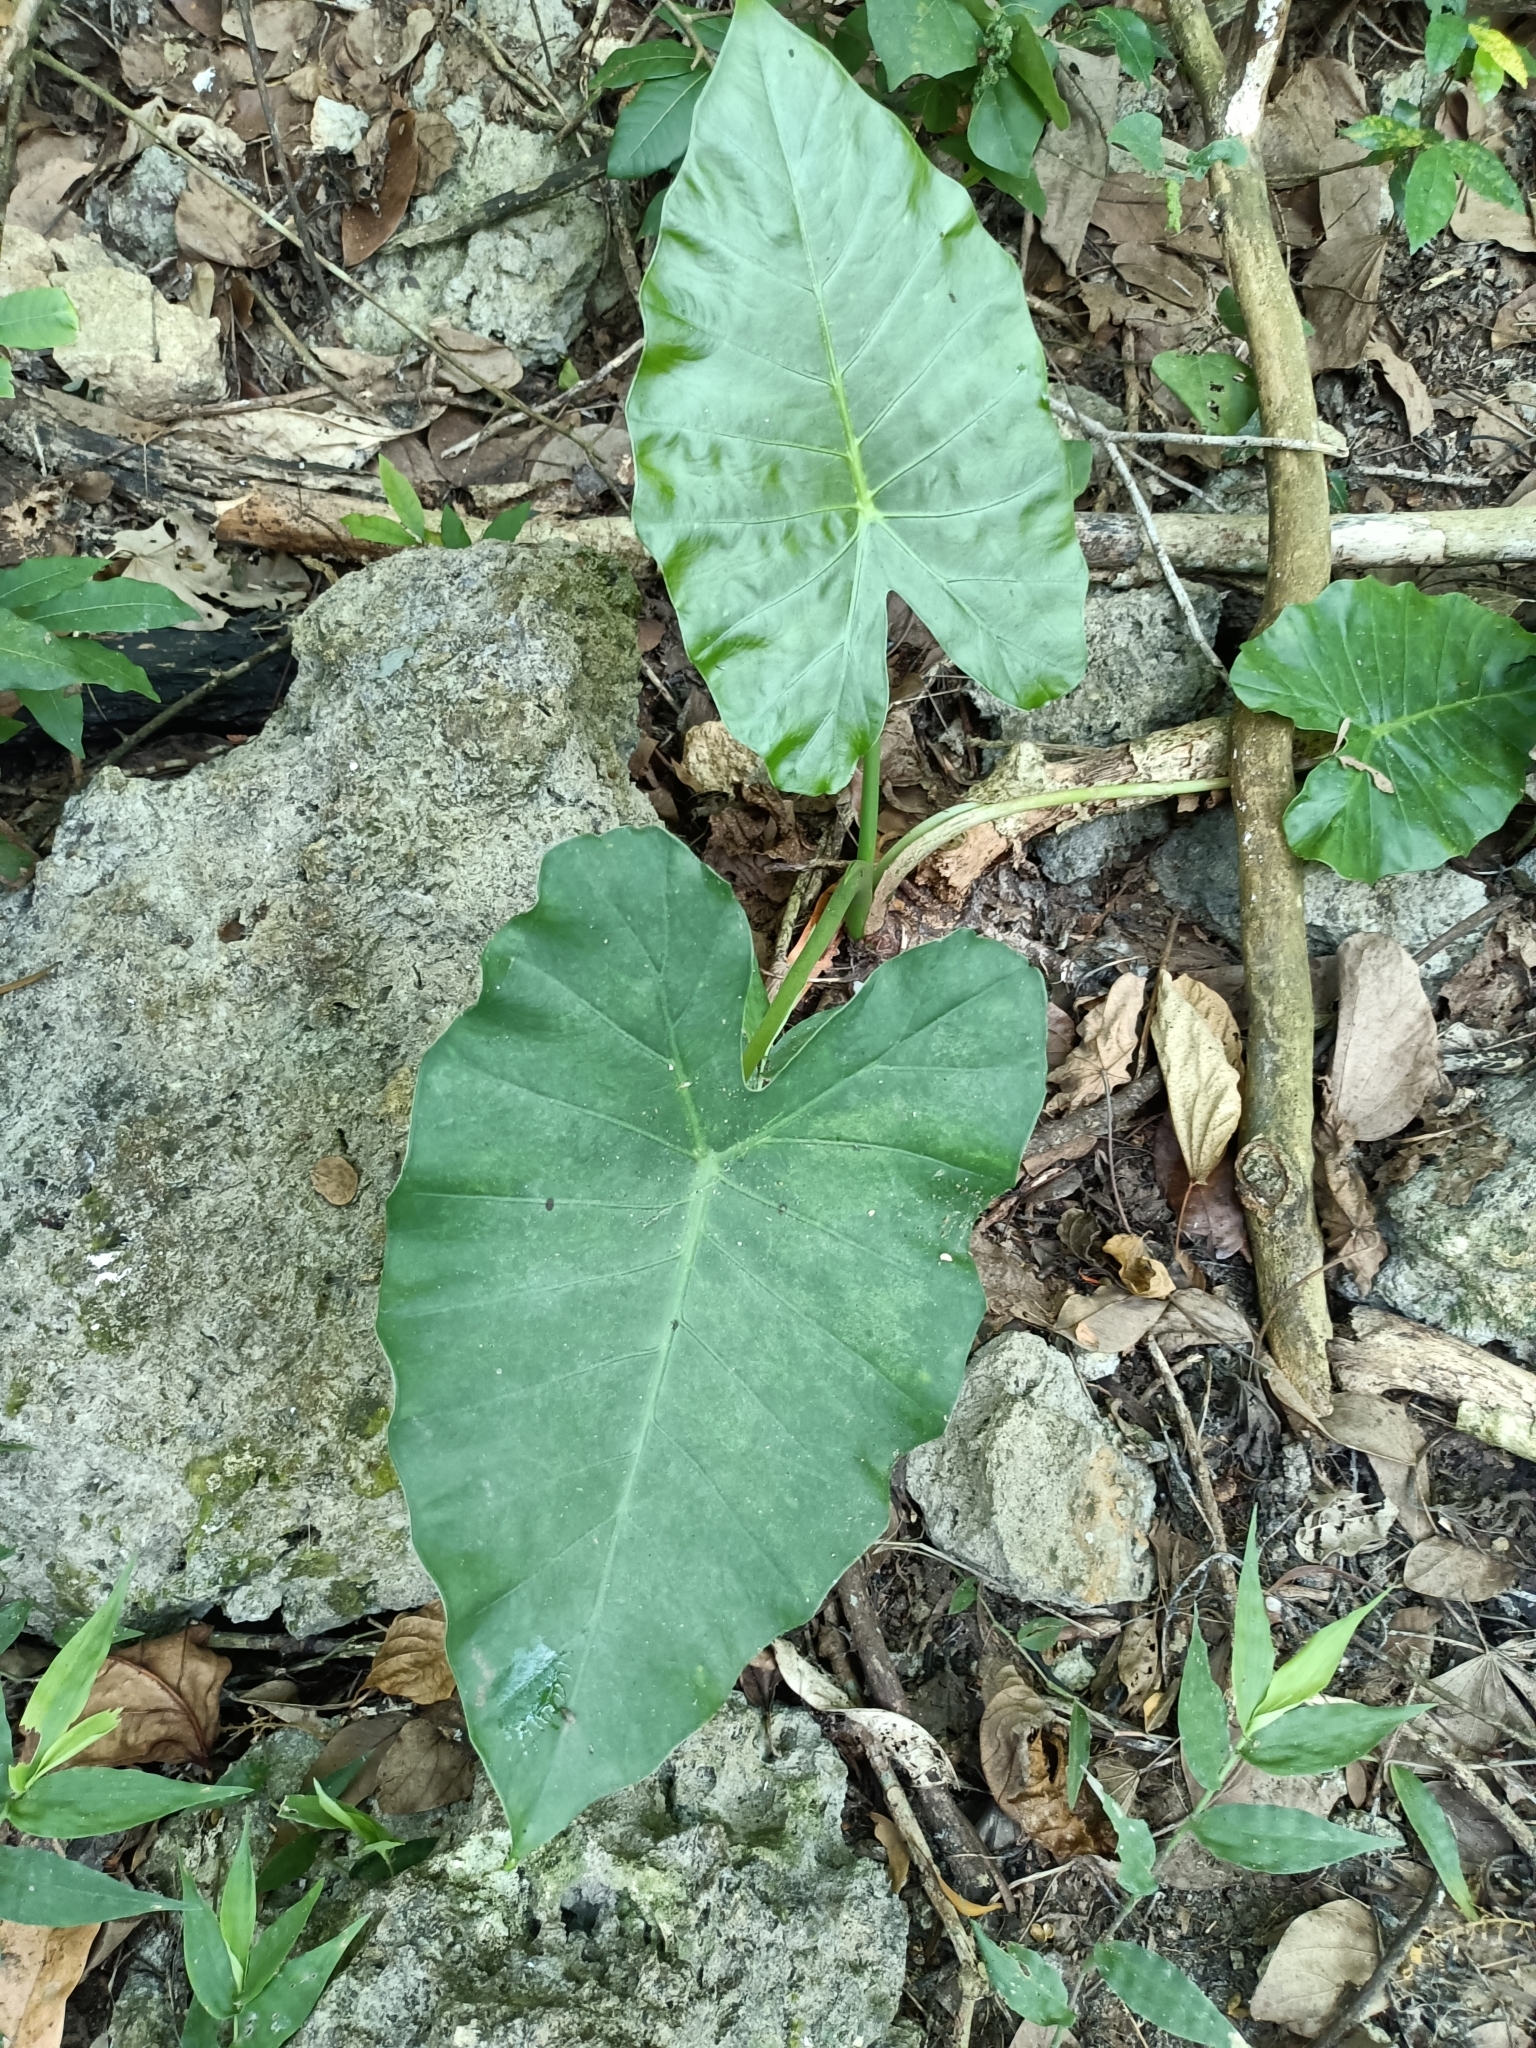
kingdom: Plantae
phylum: Tracheophyta
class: Liliopsida
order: Alismatales
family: Araceae
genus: Alocasia
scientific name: Alocasia odora
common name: Asian taro
